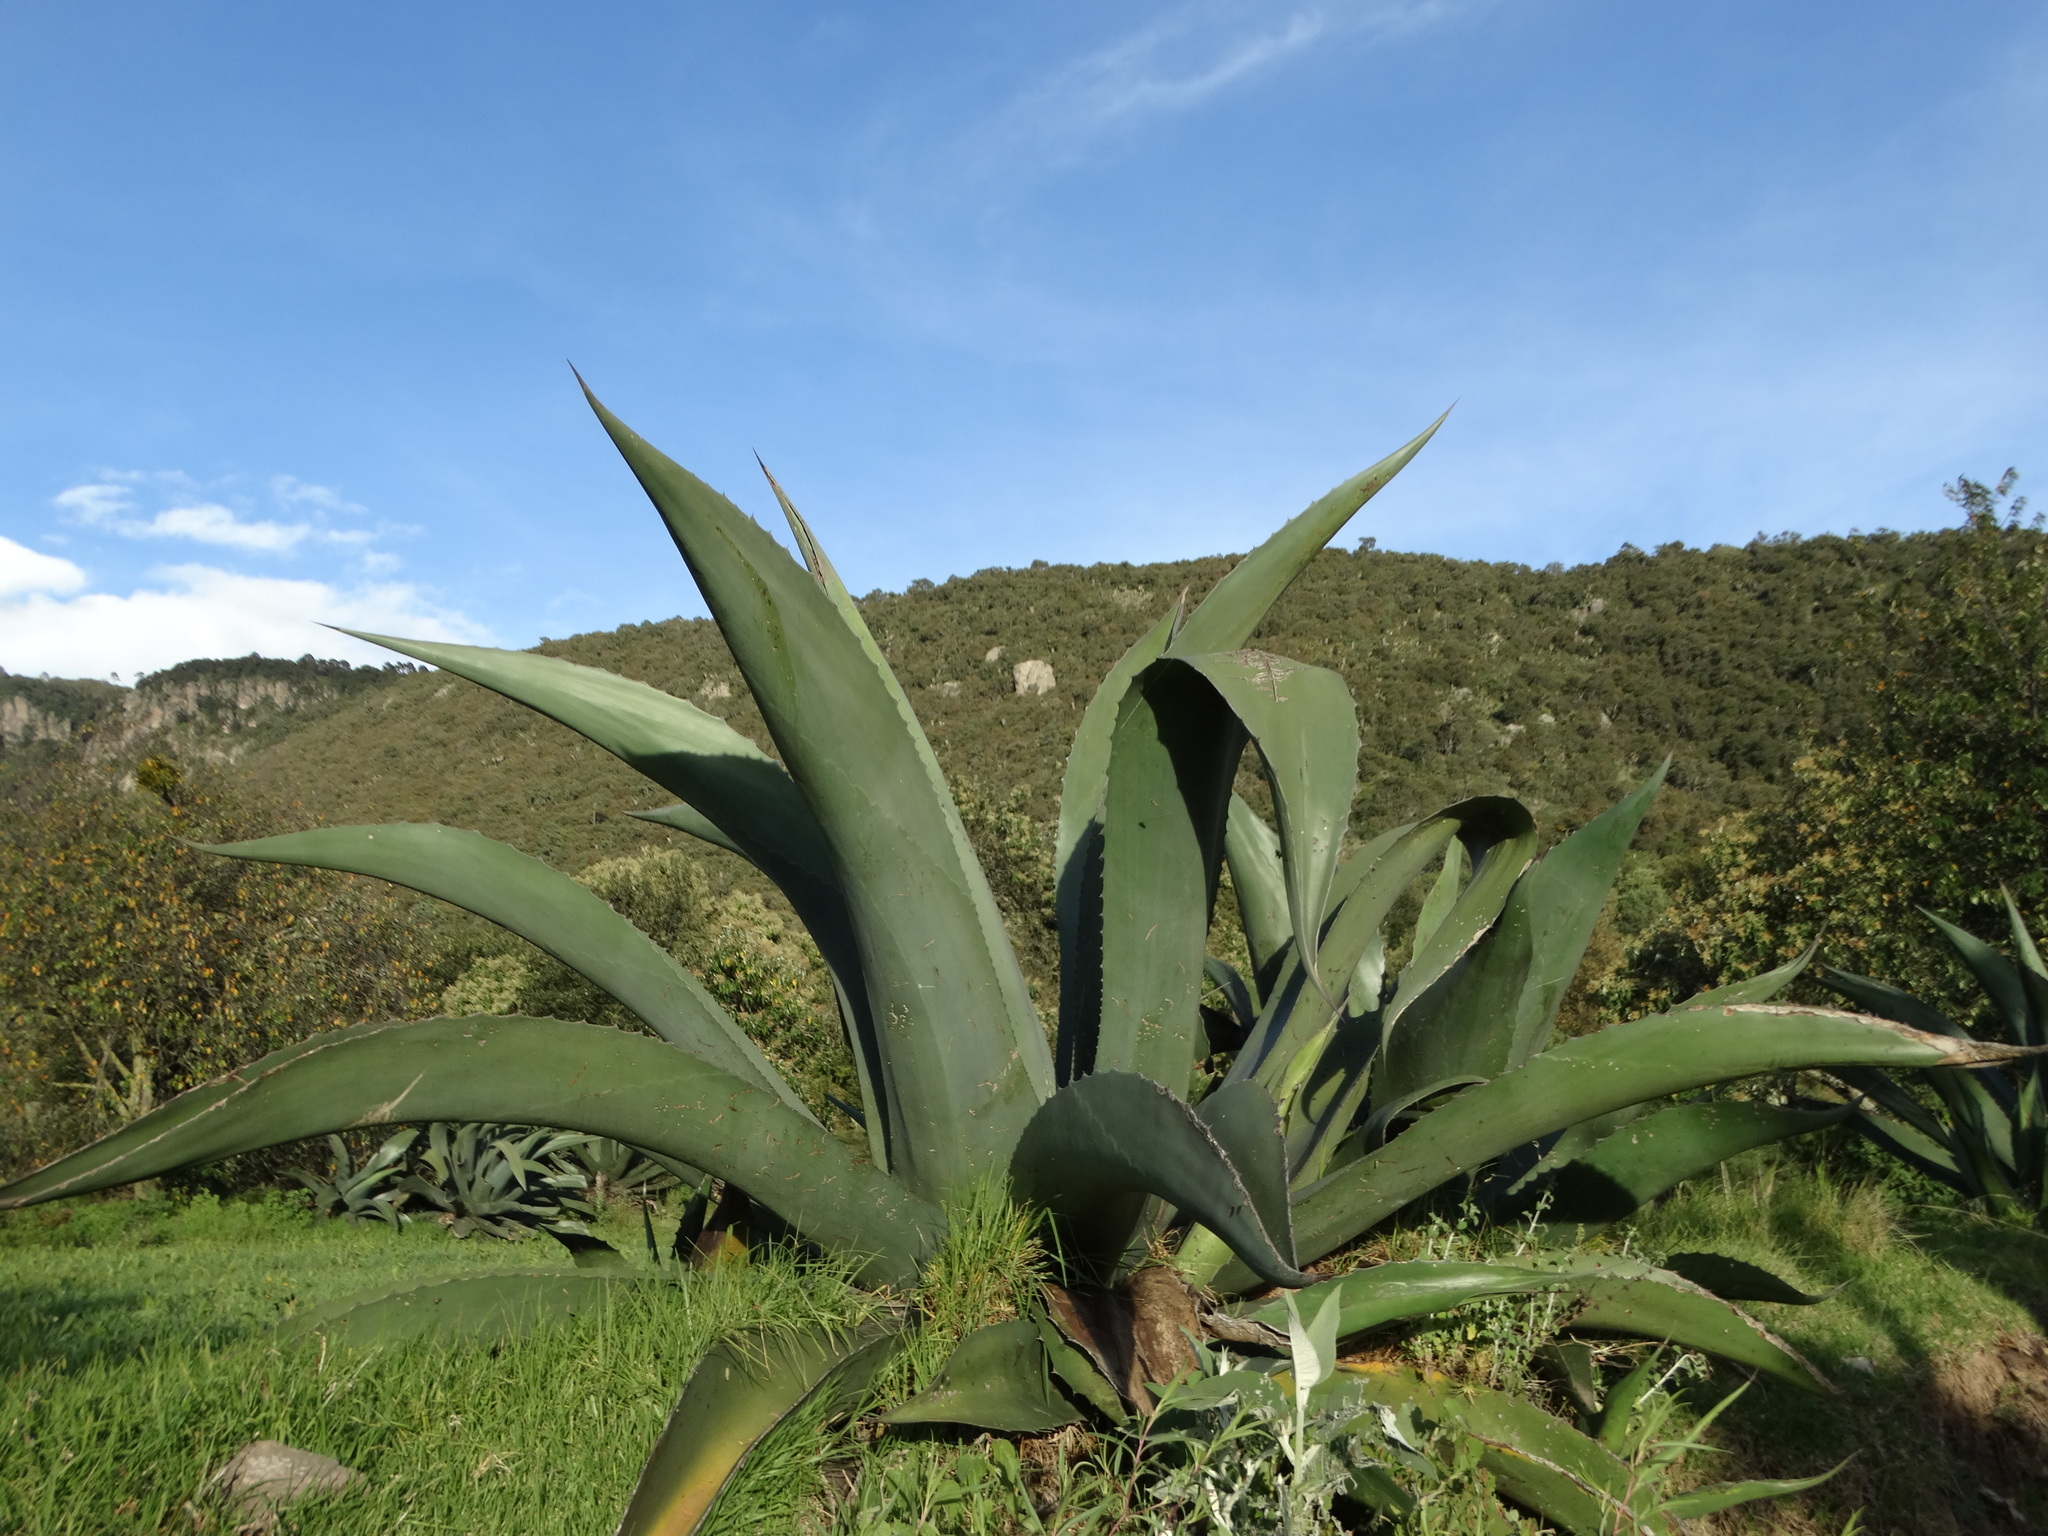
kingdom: Plantae
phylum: Tracheophyta
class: Liliopsida
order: Asparagales
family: Asparagaceae
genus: Agave
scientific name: Agave salmiana
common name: Pulque agave
